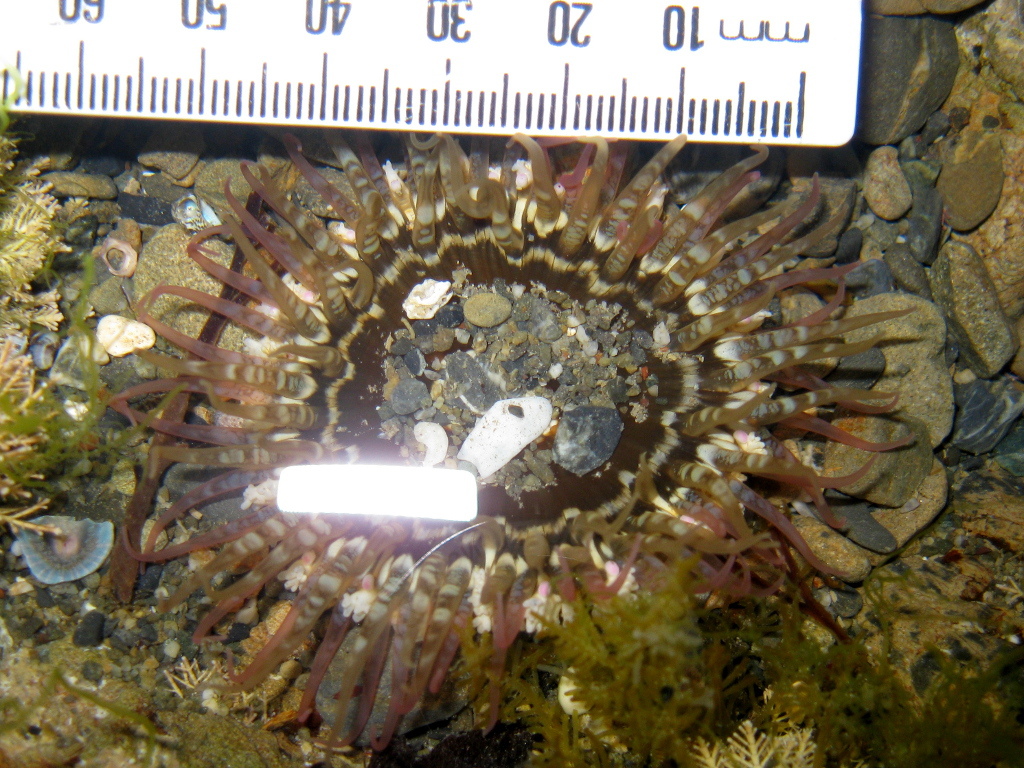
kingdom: Animalia
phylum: Cnidaria
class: Anthozoa
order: Actiniaria
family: Actiniidae
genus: Oulactis
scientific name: Oulactis muscosa
